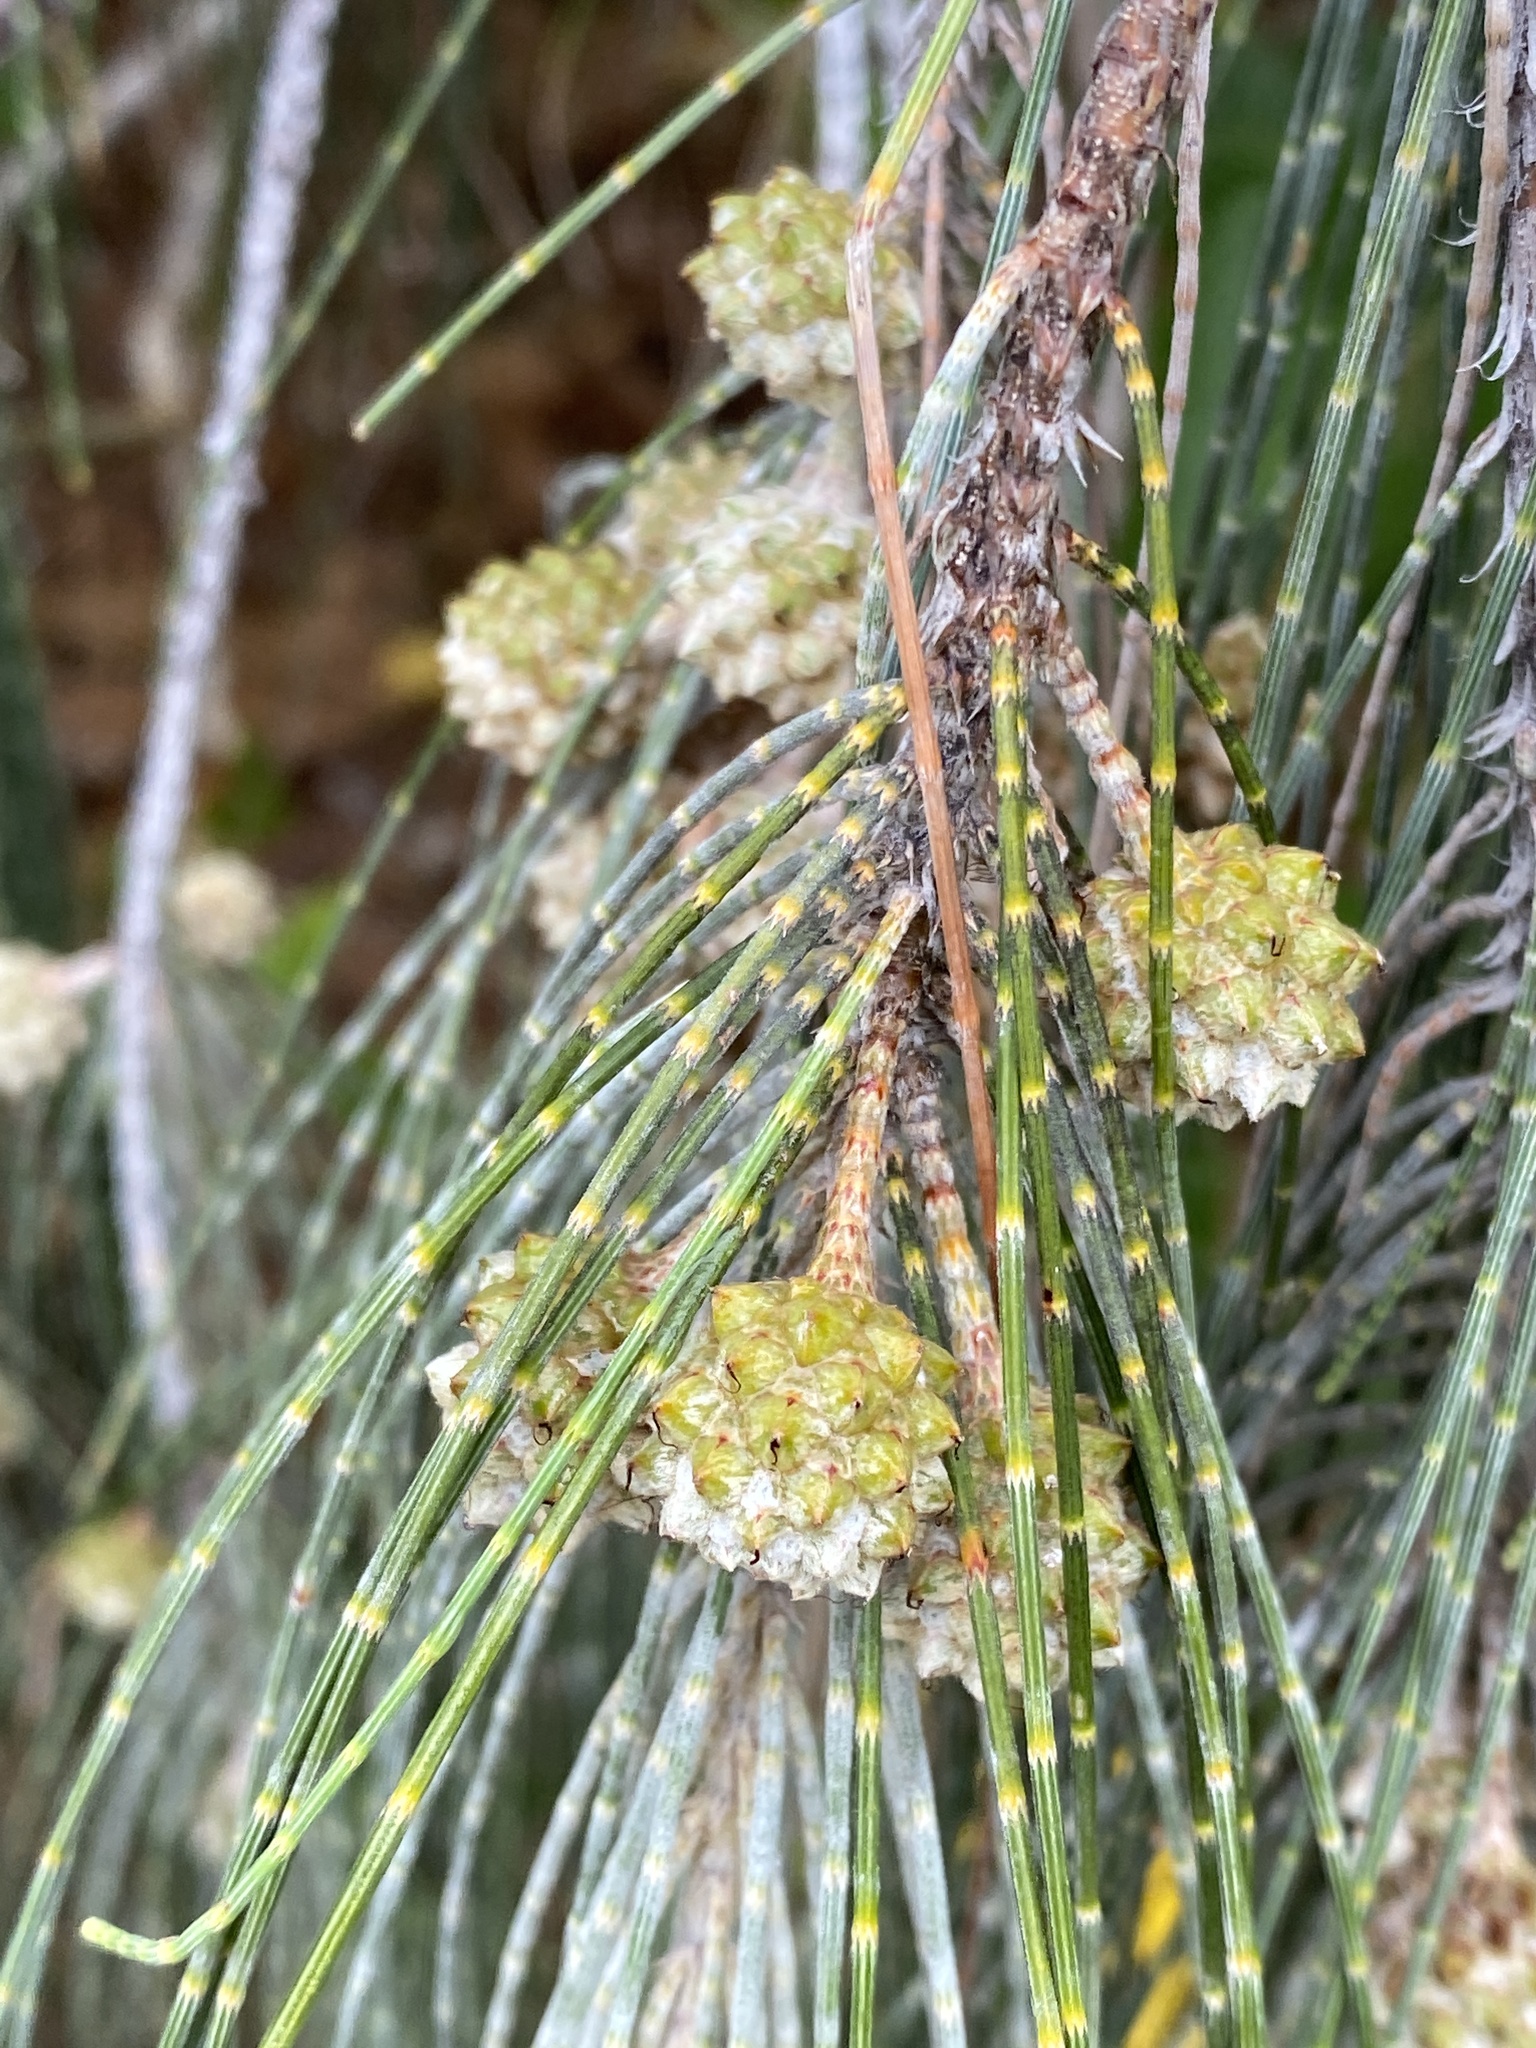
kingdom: Plantae
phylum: Tracheophyta
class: Magnoliopsida
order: Fagales
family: Casuarinaceae
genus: Casuarina
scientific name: Casuarina equisetifolia
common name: Beach sheoak
